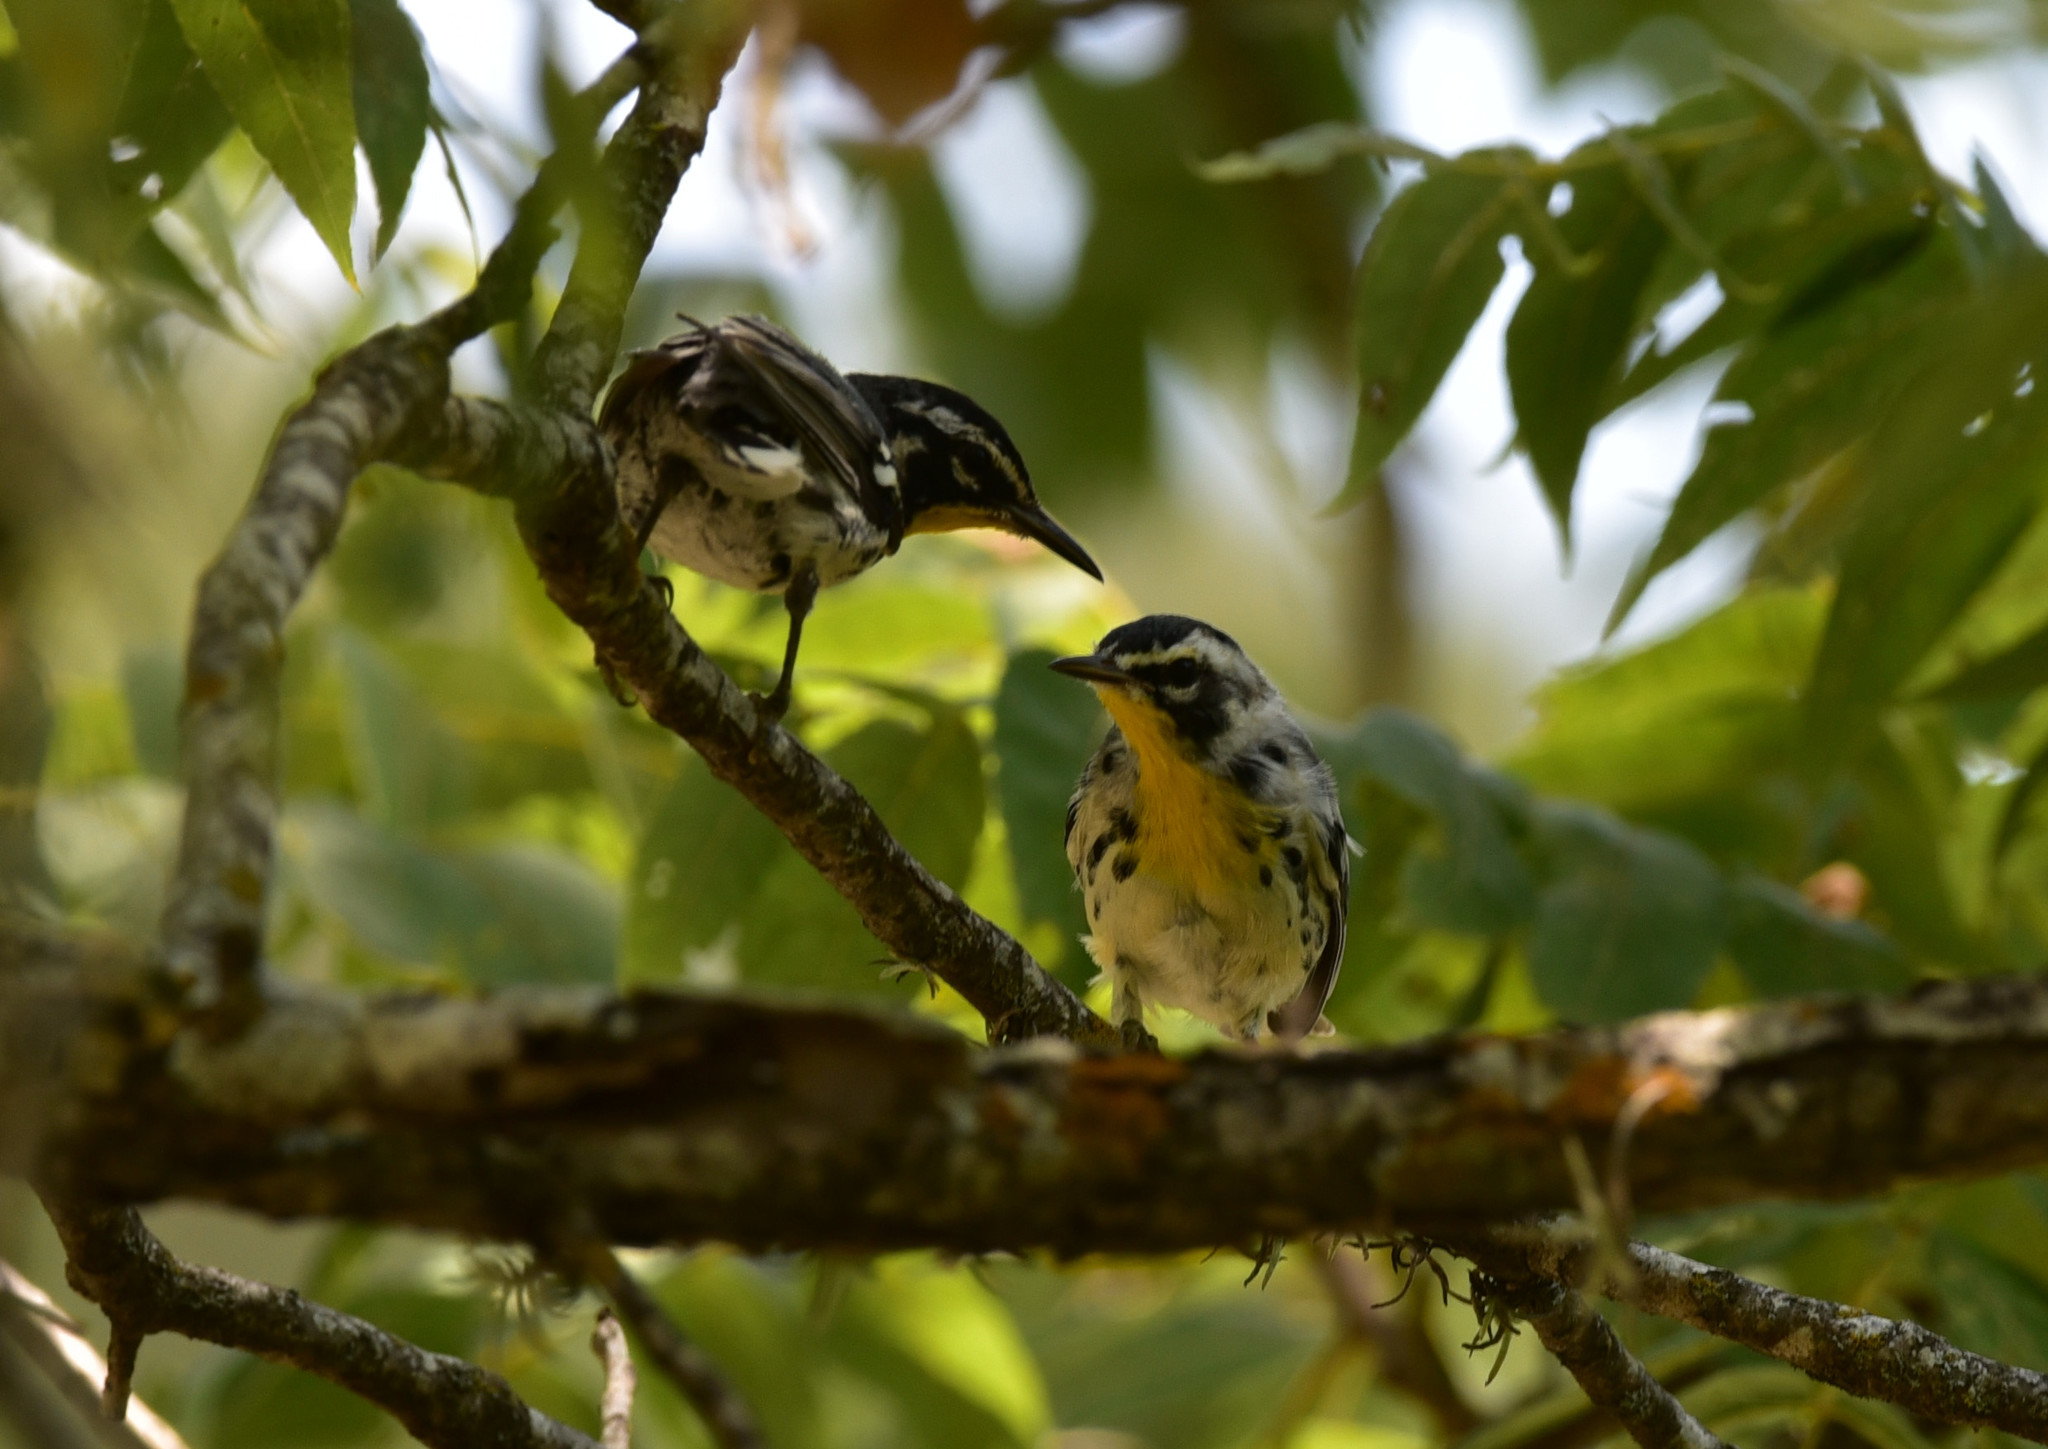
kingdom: Animalia
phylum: Chordata
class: Aves
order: Passeriformes
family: Parulidae
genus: Setophaga
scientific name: Setophaga dominica
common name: Yellow-throated warbler
